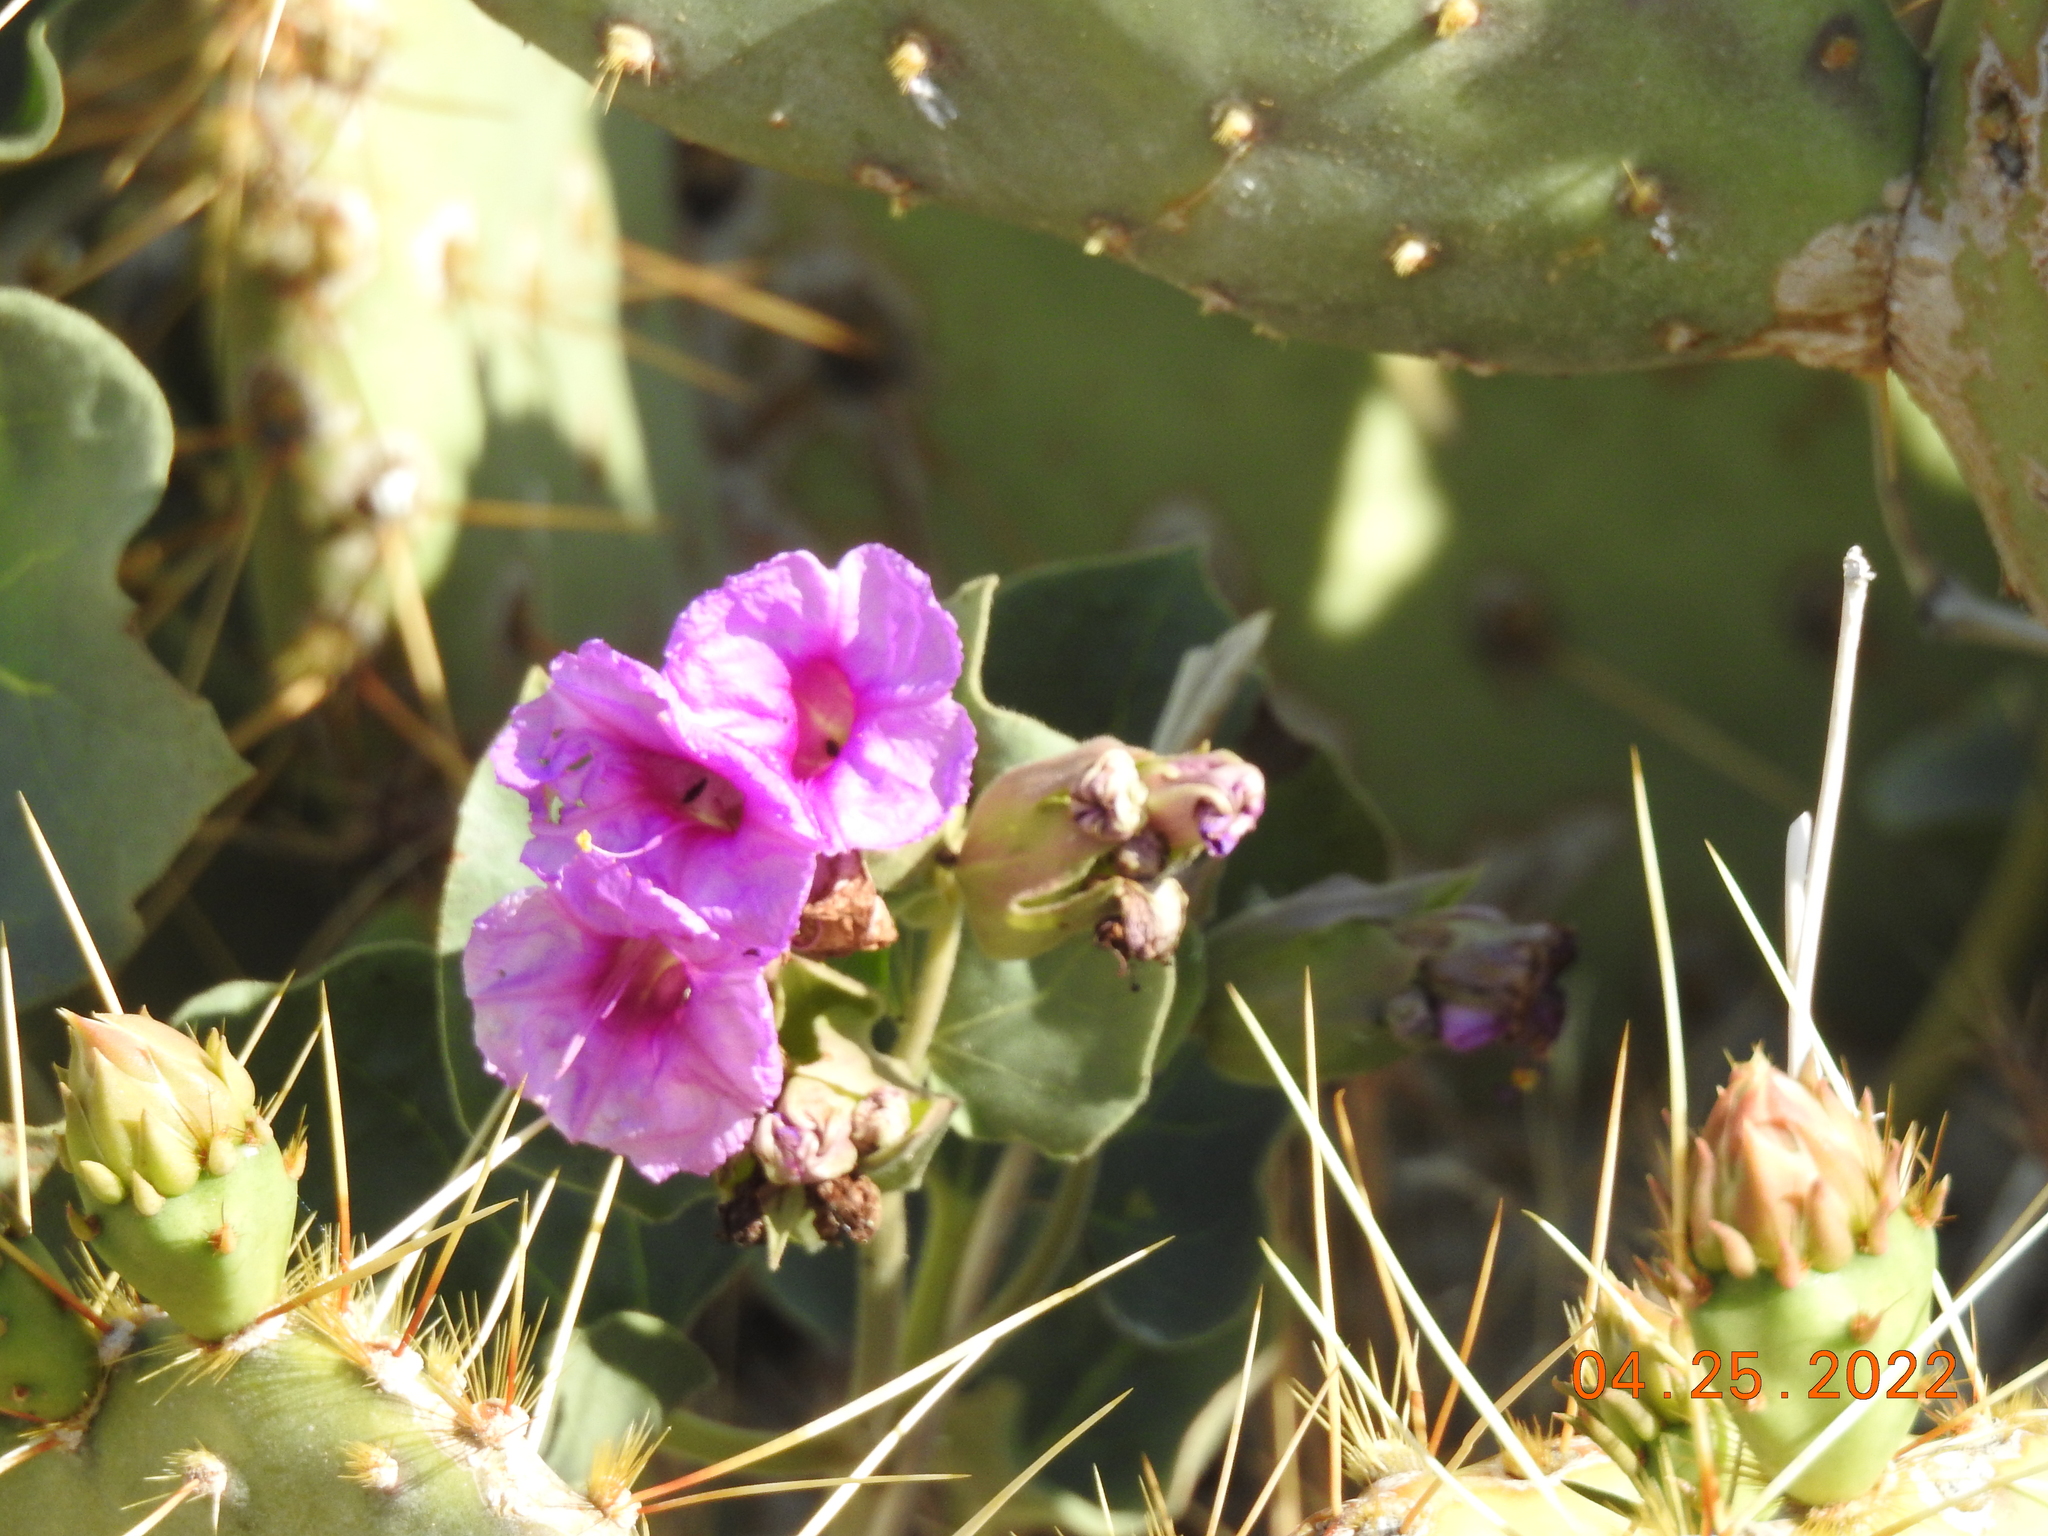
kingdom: Plantae
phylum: Tracheophyta
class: Magnoliopsida
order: Caryophyllales
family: Nyctaginaceae
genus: Mirabilis
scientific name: Mirabilis multiflora
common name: Froebel's four-o'clock
